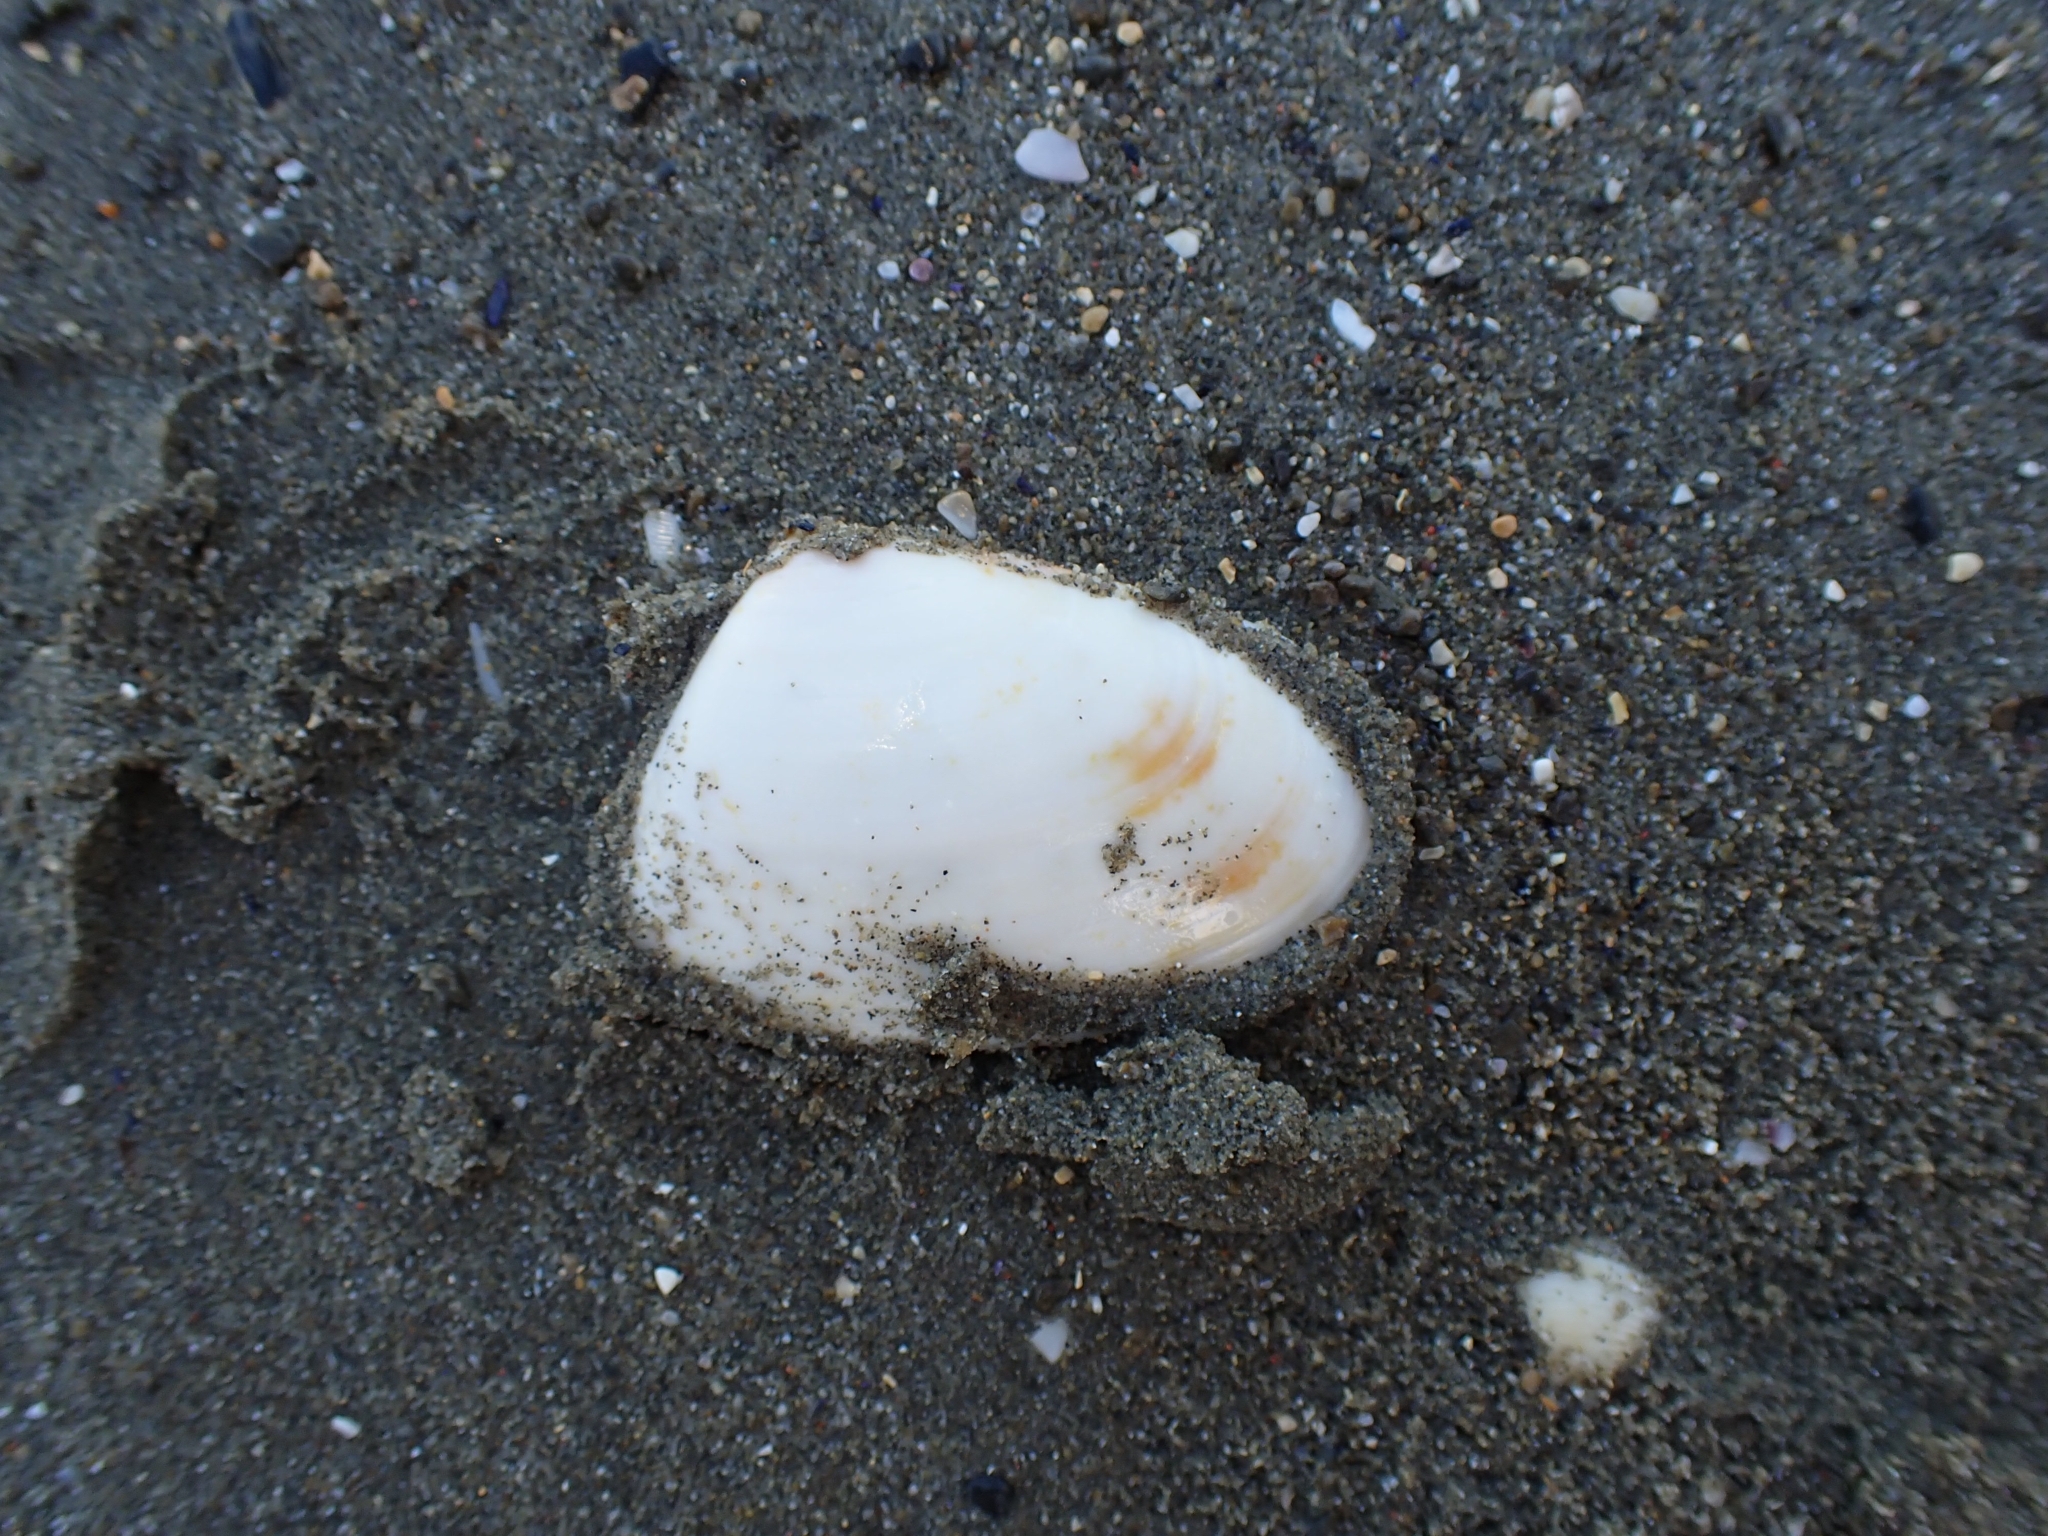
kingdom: Animalia
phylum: Mollusca
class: Bivalvia
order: Venerida
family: Mesodesmatidae
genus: Paphies
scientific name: Paphies ventricosa
